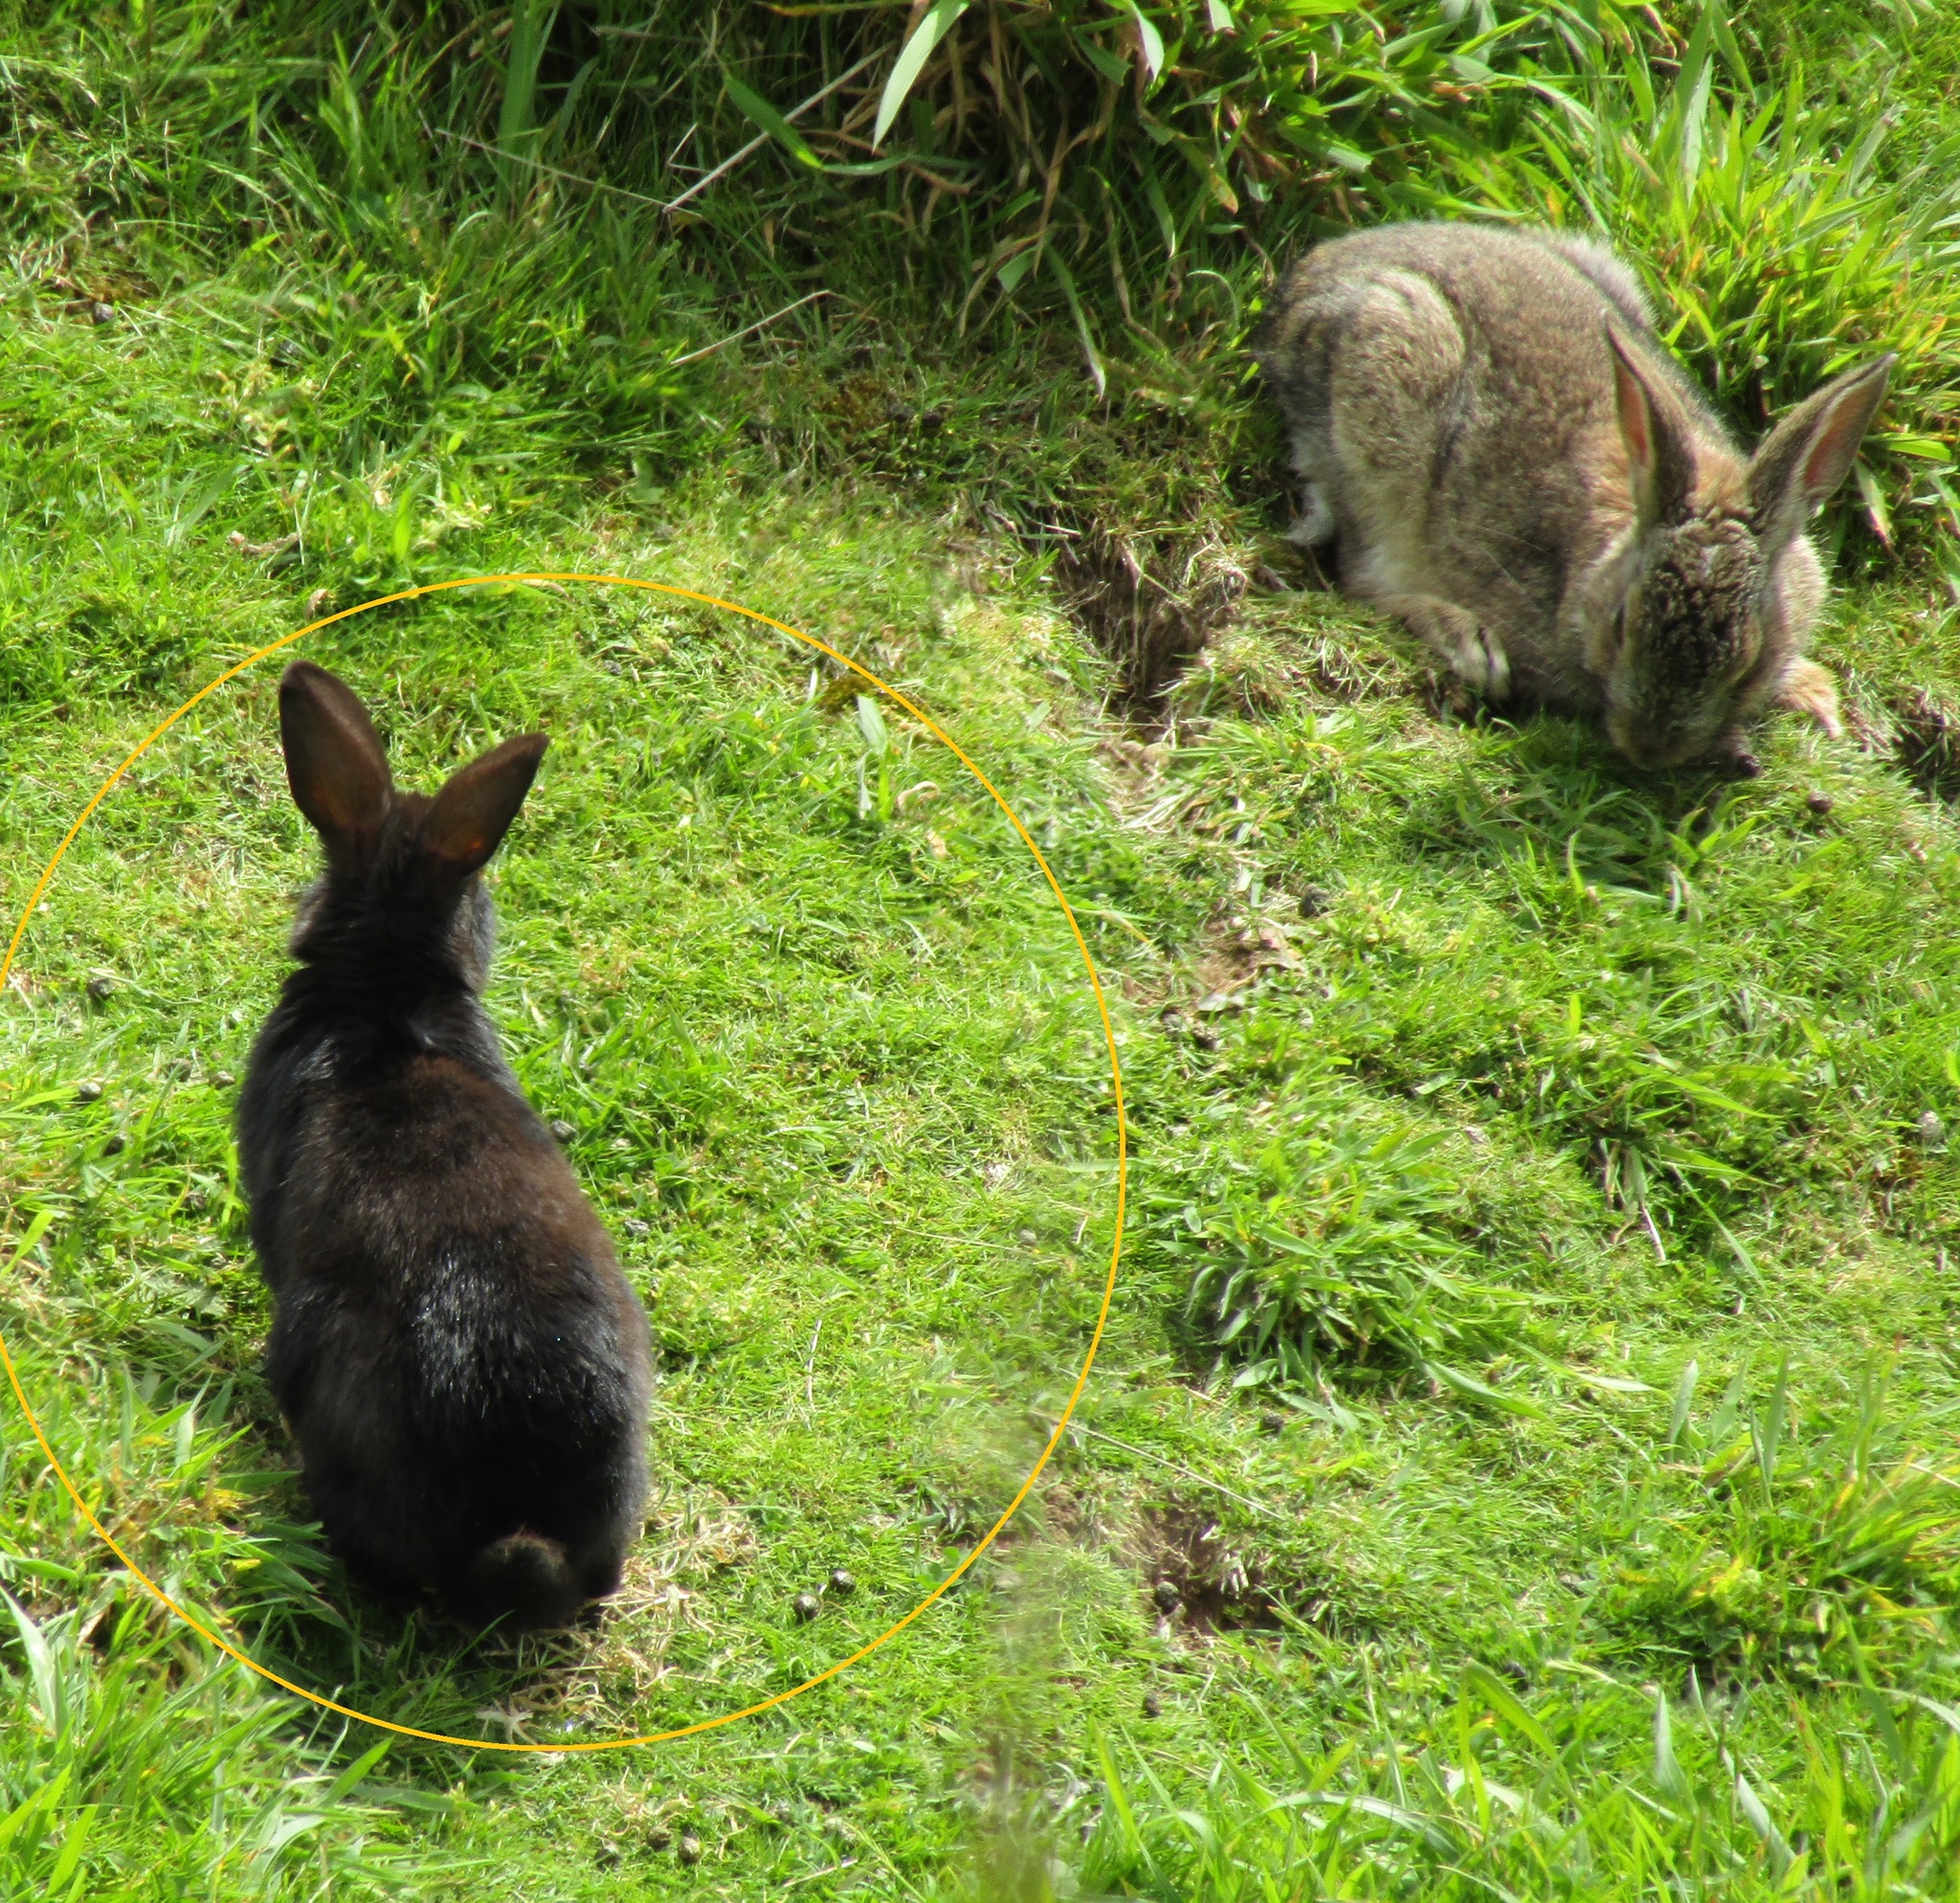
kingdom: Animalia
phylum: Chordata
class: Mammalia
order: Lagomorpha
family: Leporidae
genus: Oryctolagus
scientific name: Oryctolagus cuniculus
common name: European rabbit
